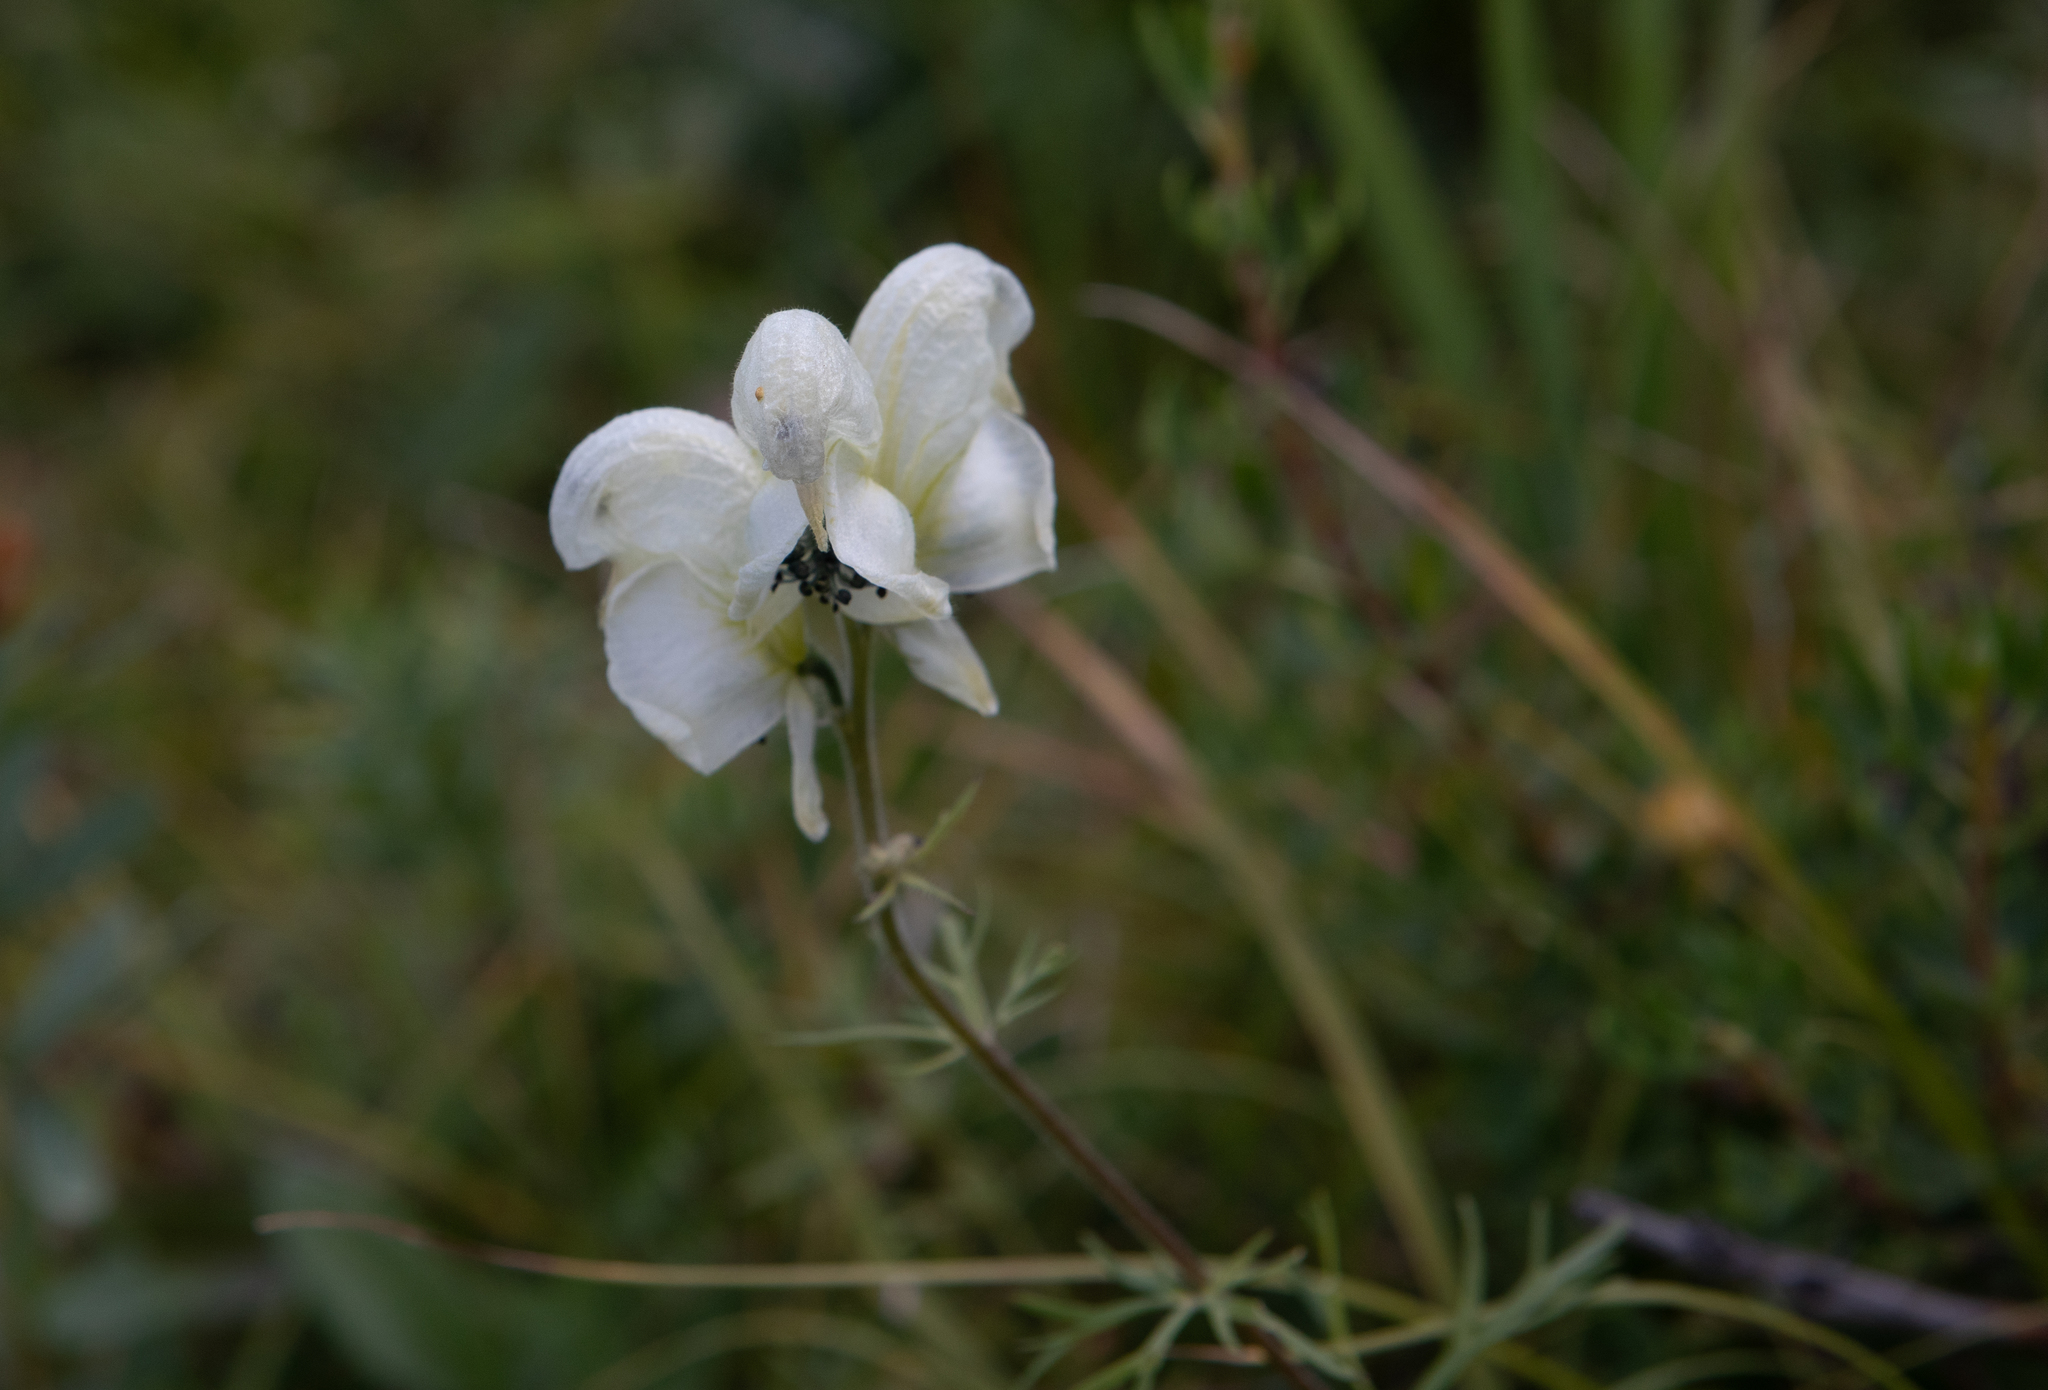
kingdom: Plantae
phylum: Tracheophyta
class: Magnoliopsida
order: Ranunculales
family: Ranunculaceae
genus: Aconitum
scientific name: Aconitum anthora
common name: Yellow monkshood
